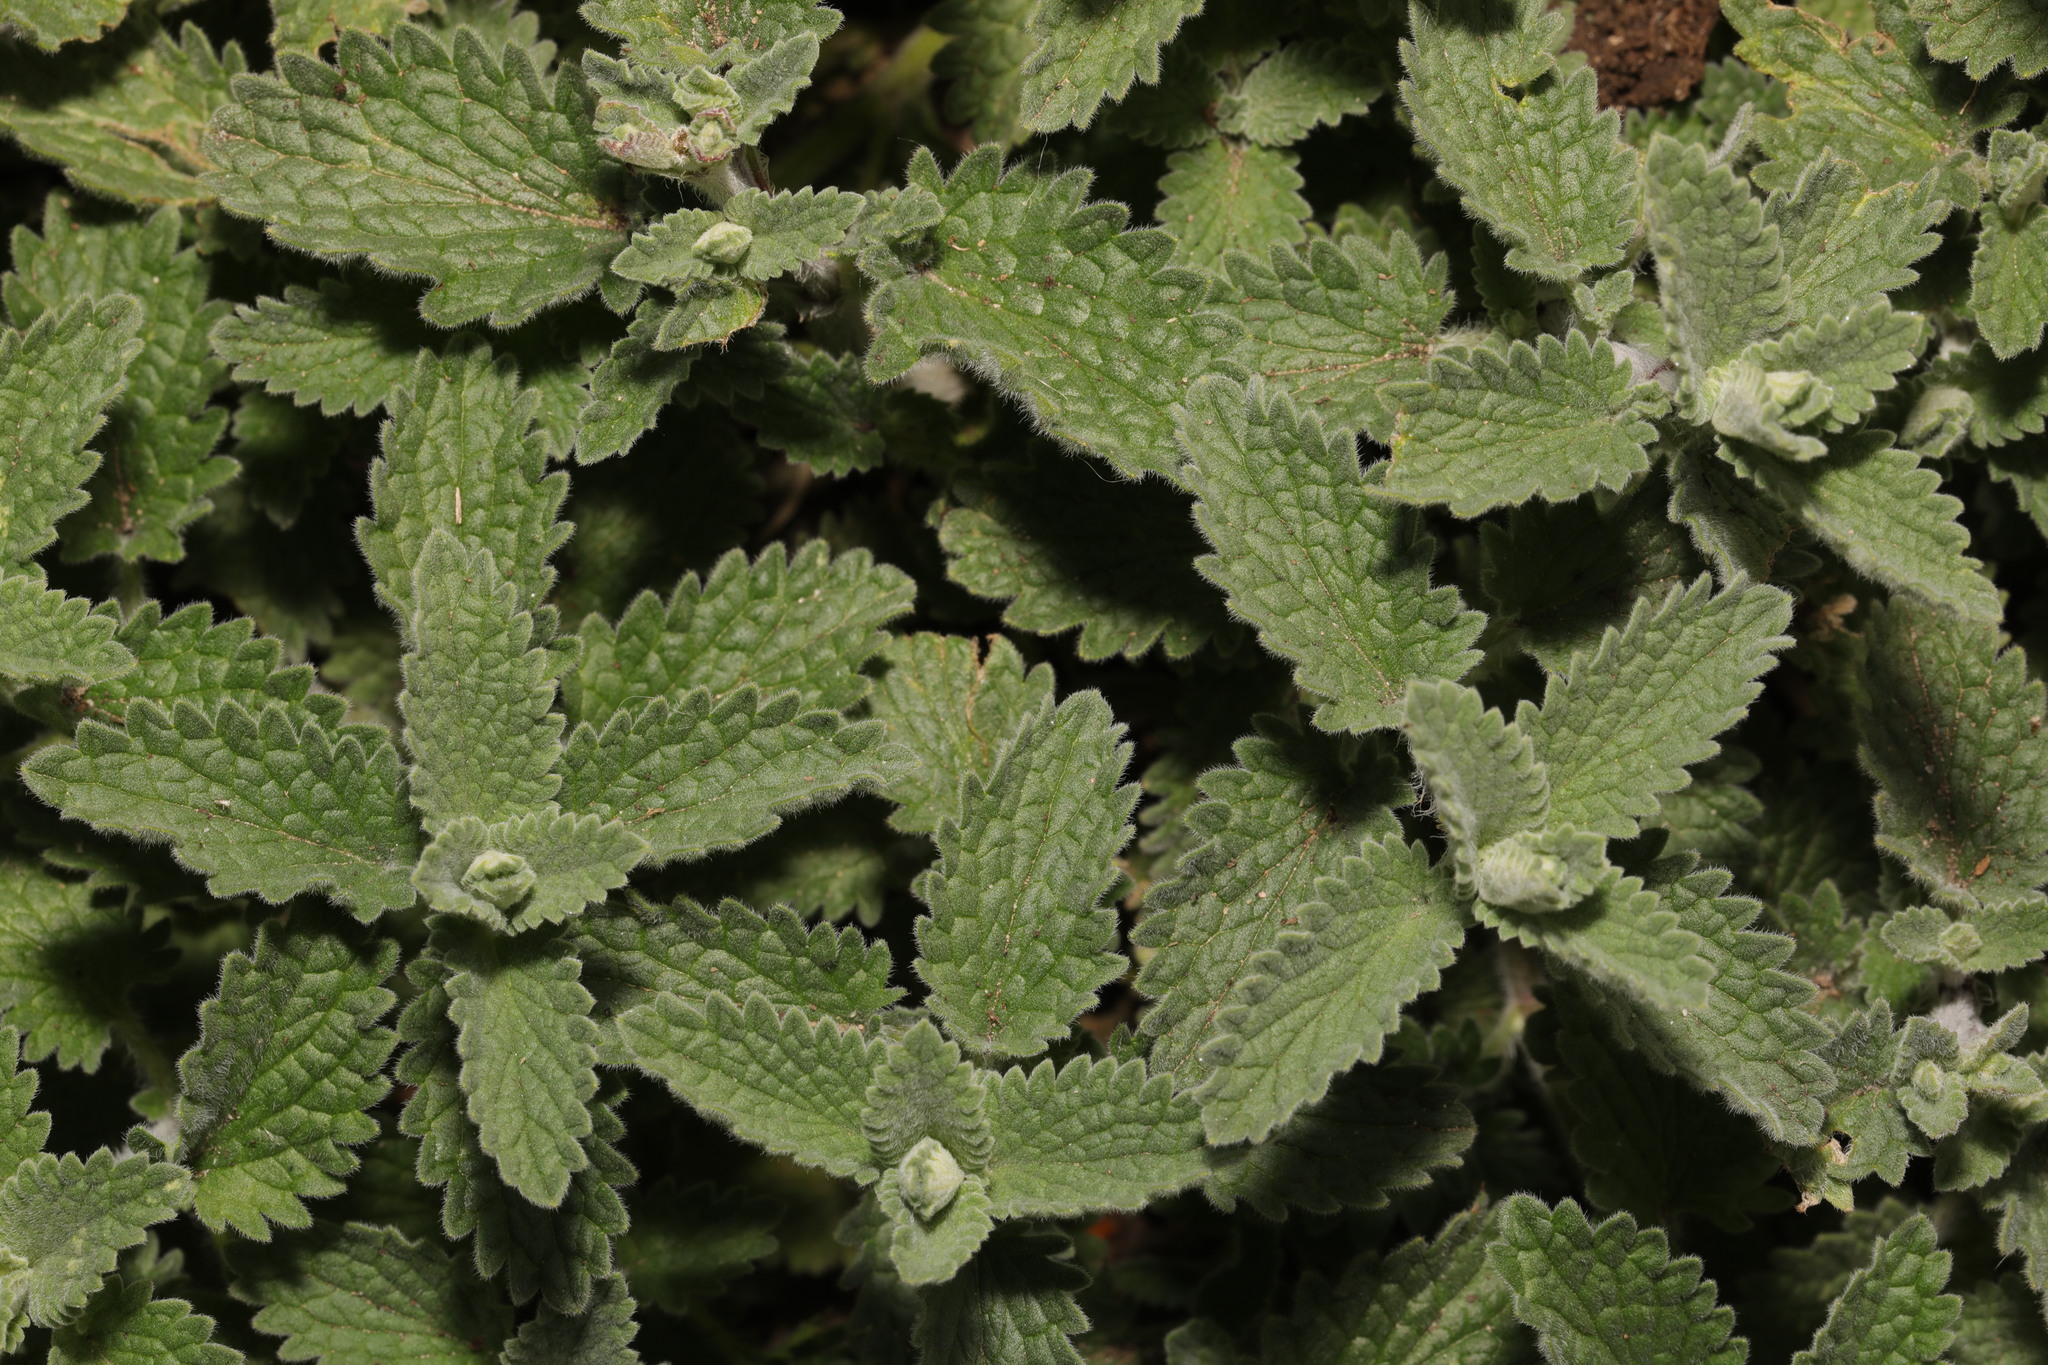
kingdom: Plantae
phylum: Tracheophyta
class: Magnoliopsida
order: Lamiales
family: Lamiaceae
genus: Nepeta
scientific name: Nepeta faassenii
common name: Catmint
